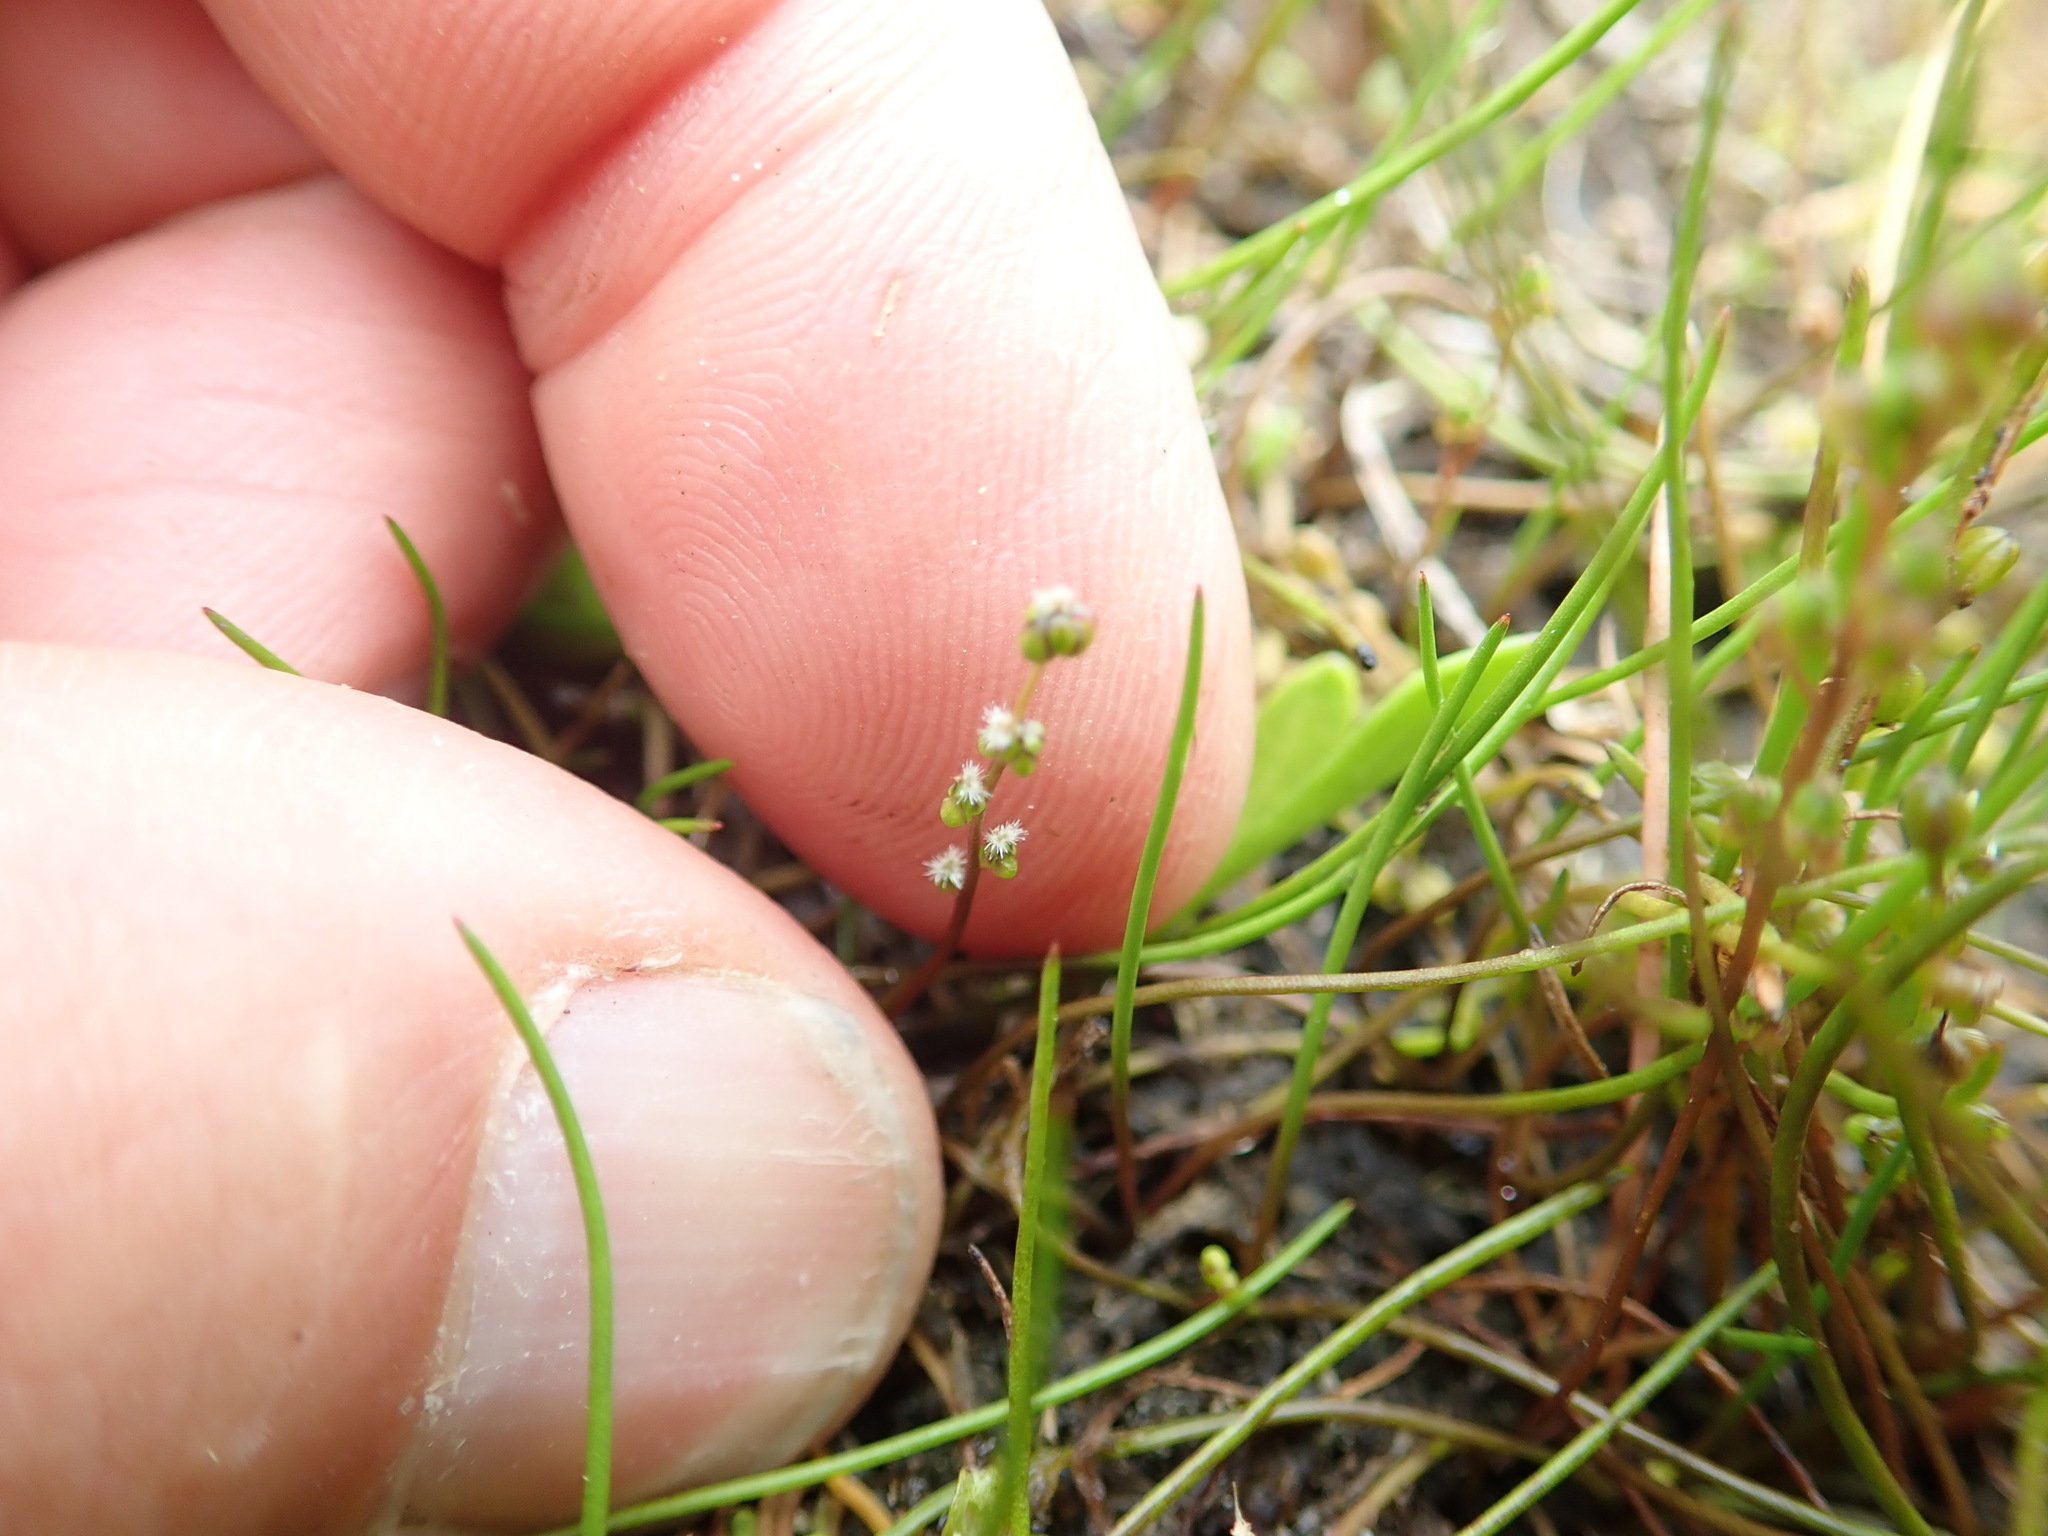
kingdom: Plantae
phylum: Tracheophyta
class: Liliopsida
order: Alismatales
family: Juncaginaceae
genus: Triglochin
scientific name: Triglochin striata
